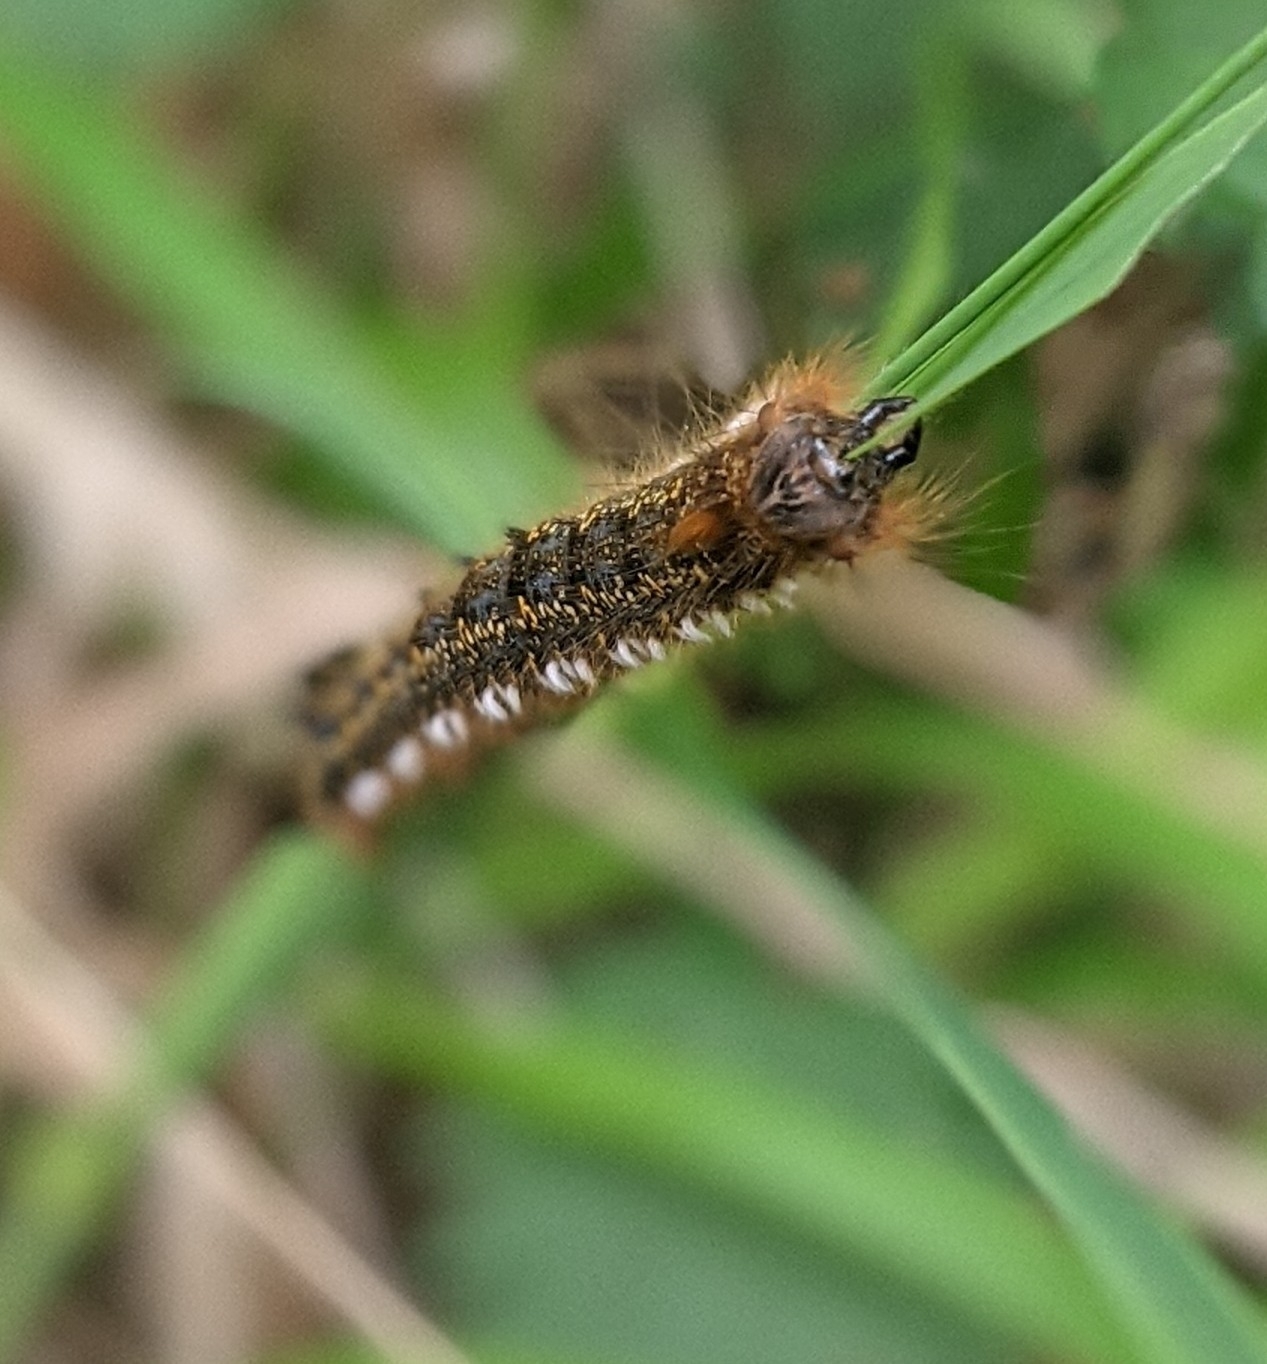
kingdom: Animalia
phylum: Arthropoda
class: Insecta
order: Lepidoptera
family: Lasiocampidae
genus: Euthrix
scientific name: Euthrix potatoria
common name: Drinker
